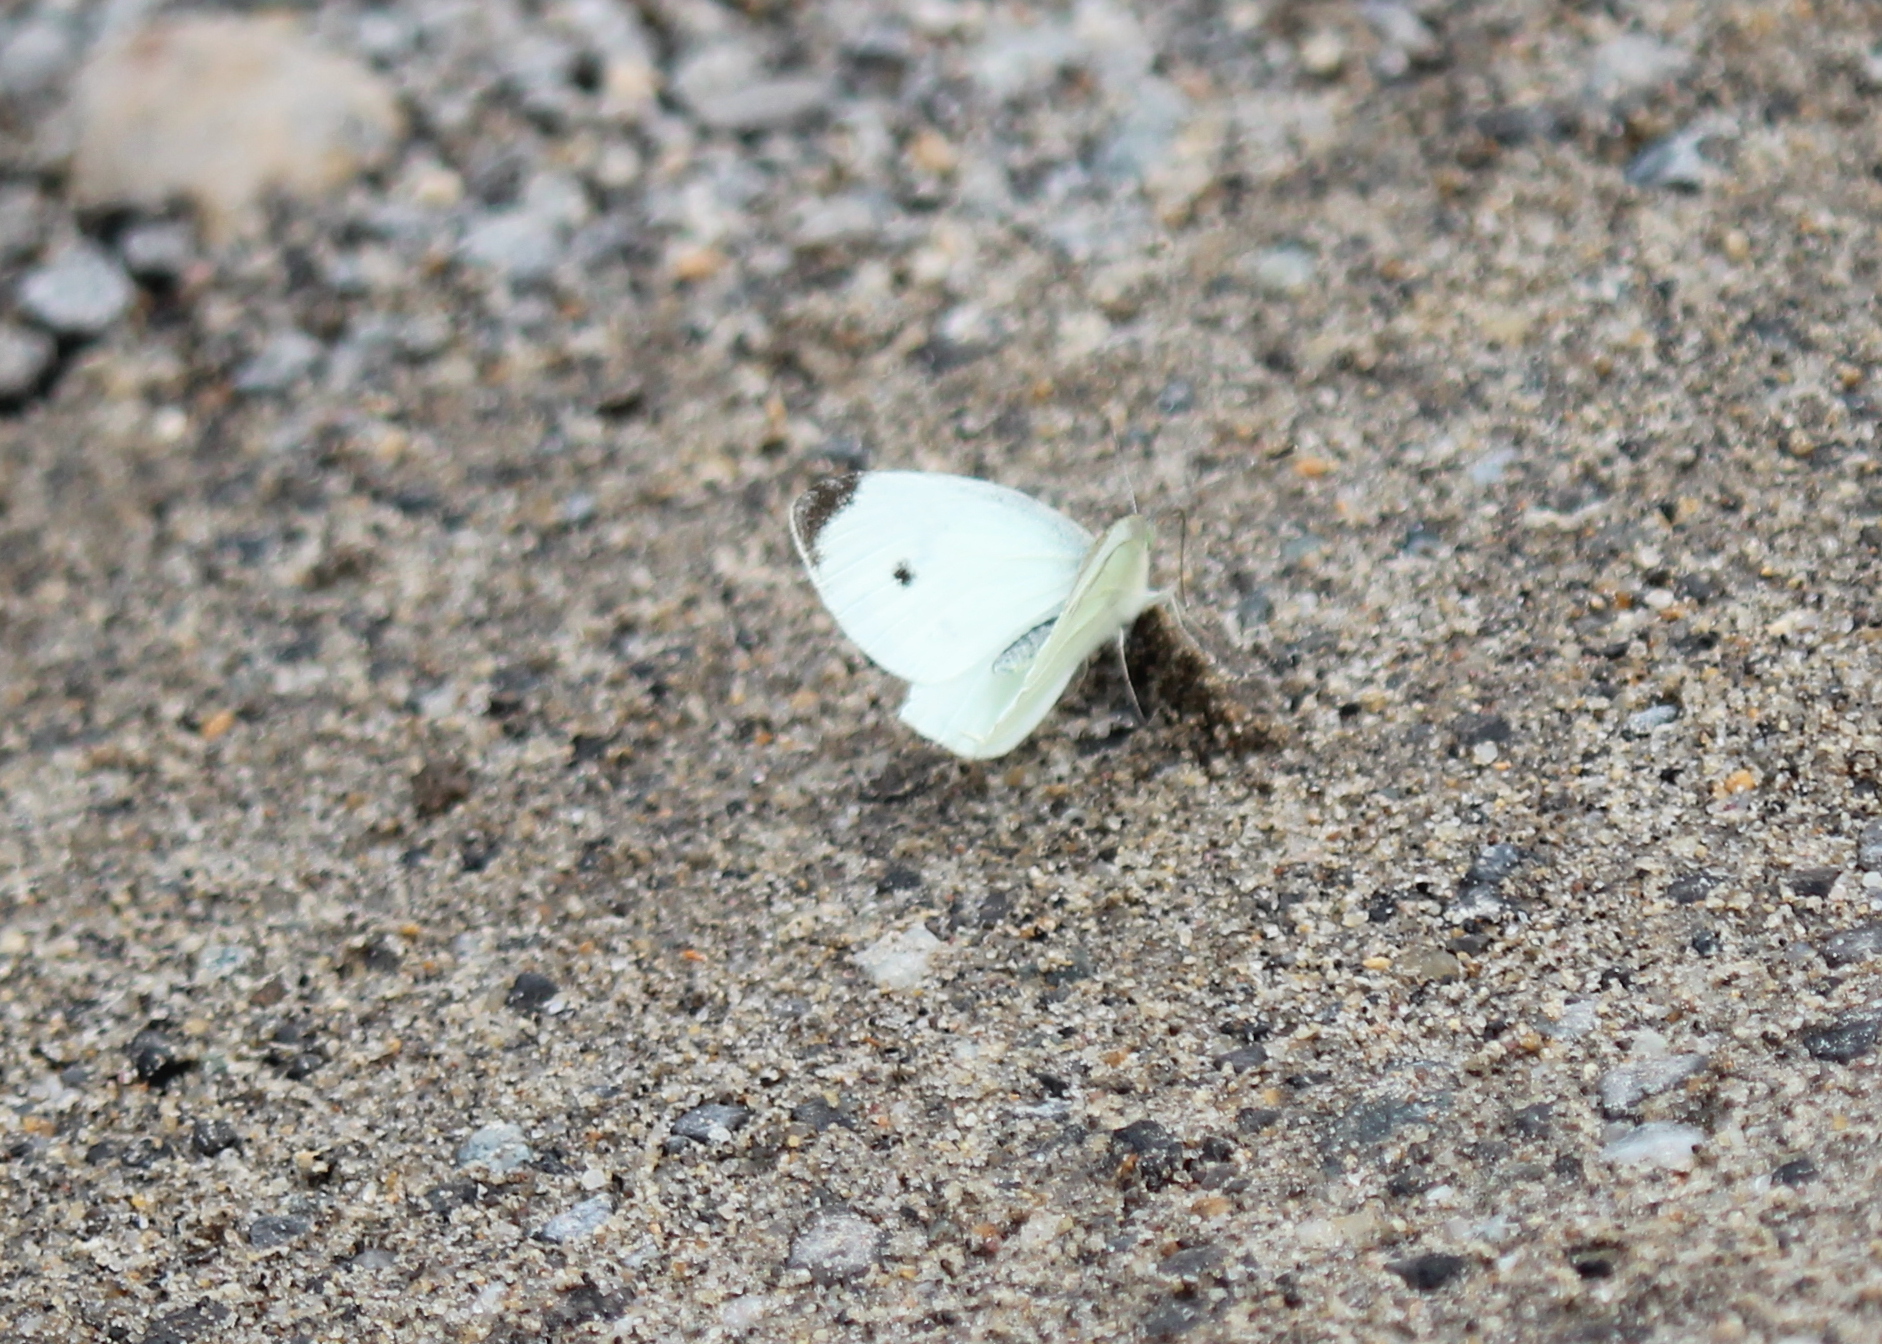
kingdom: Animalia
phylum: Arthropoda
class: Insecta
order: Lepidoptera
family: Pieridae
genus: Pieris
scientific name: Pieris rapae
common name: Small white
